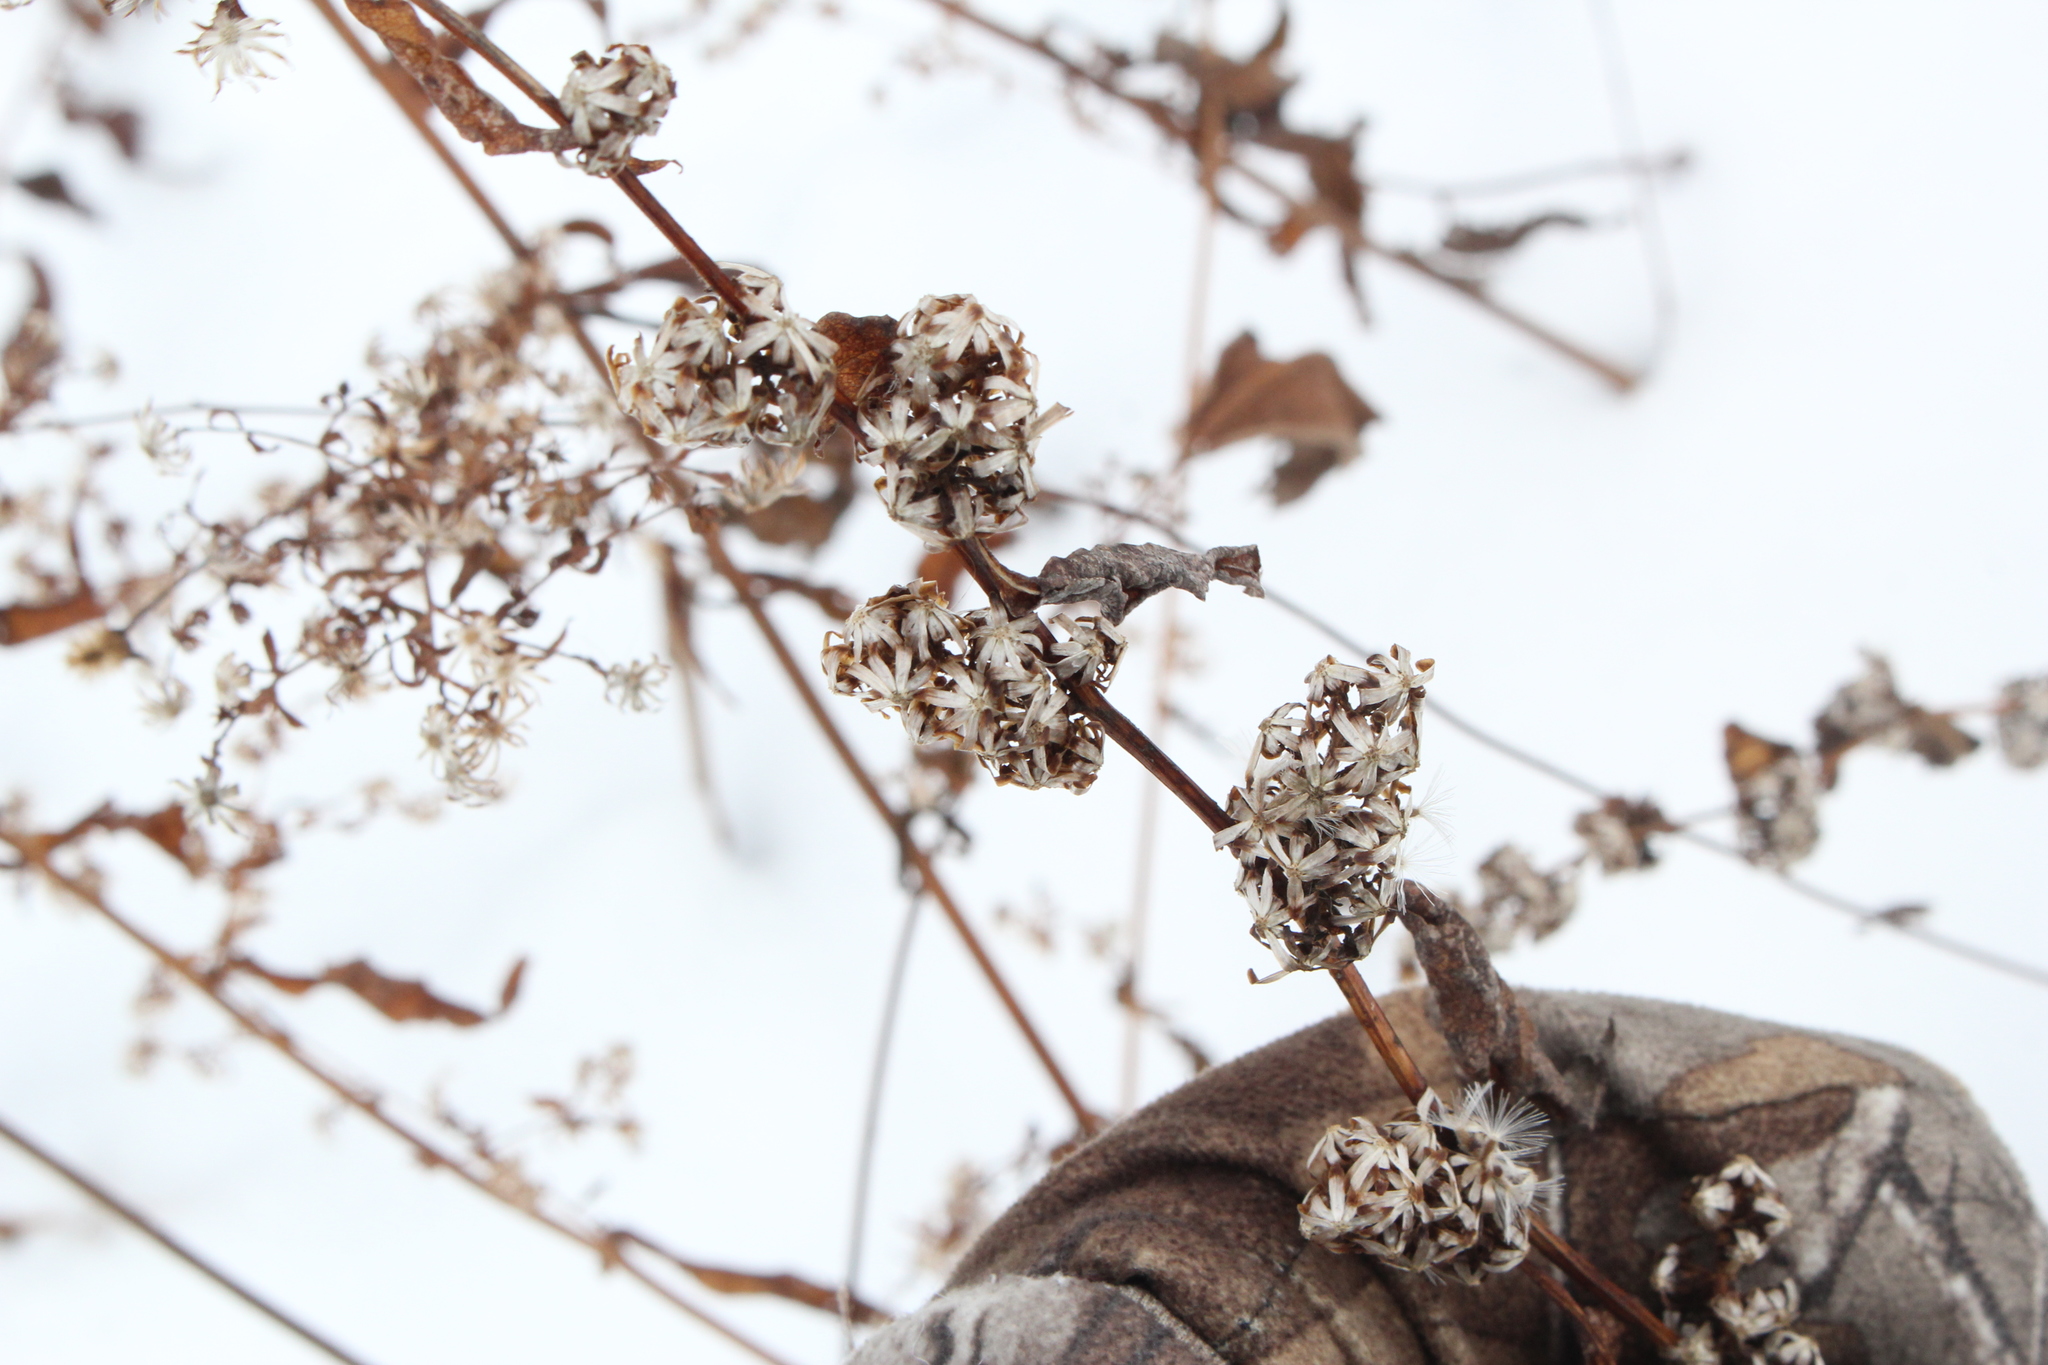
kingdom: Plantae
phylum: Tracheophyta
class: Magnoliopsida
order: Asterales
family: Asteraceae
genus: Solidago
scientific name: Solidago flexicaulis
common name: Zig-zag goldenrod
